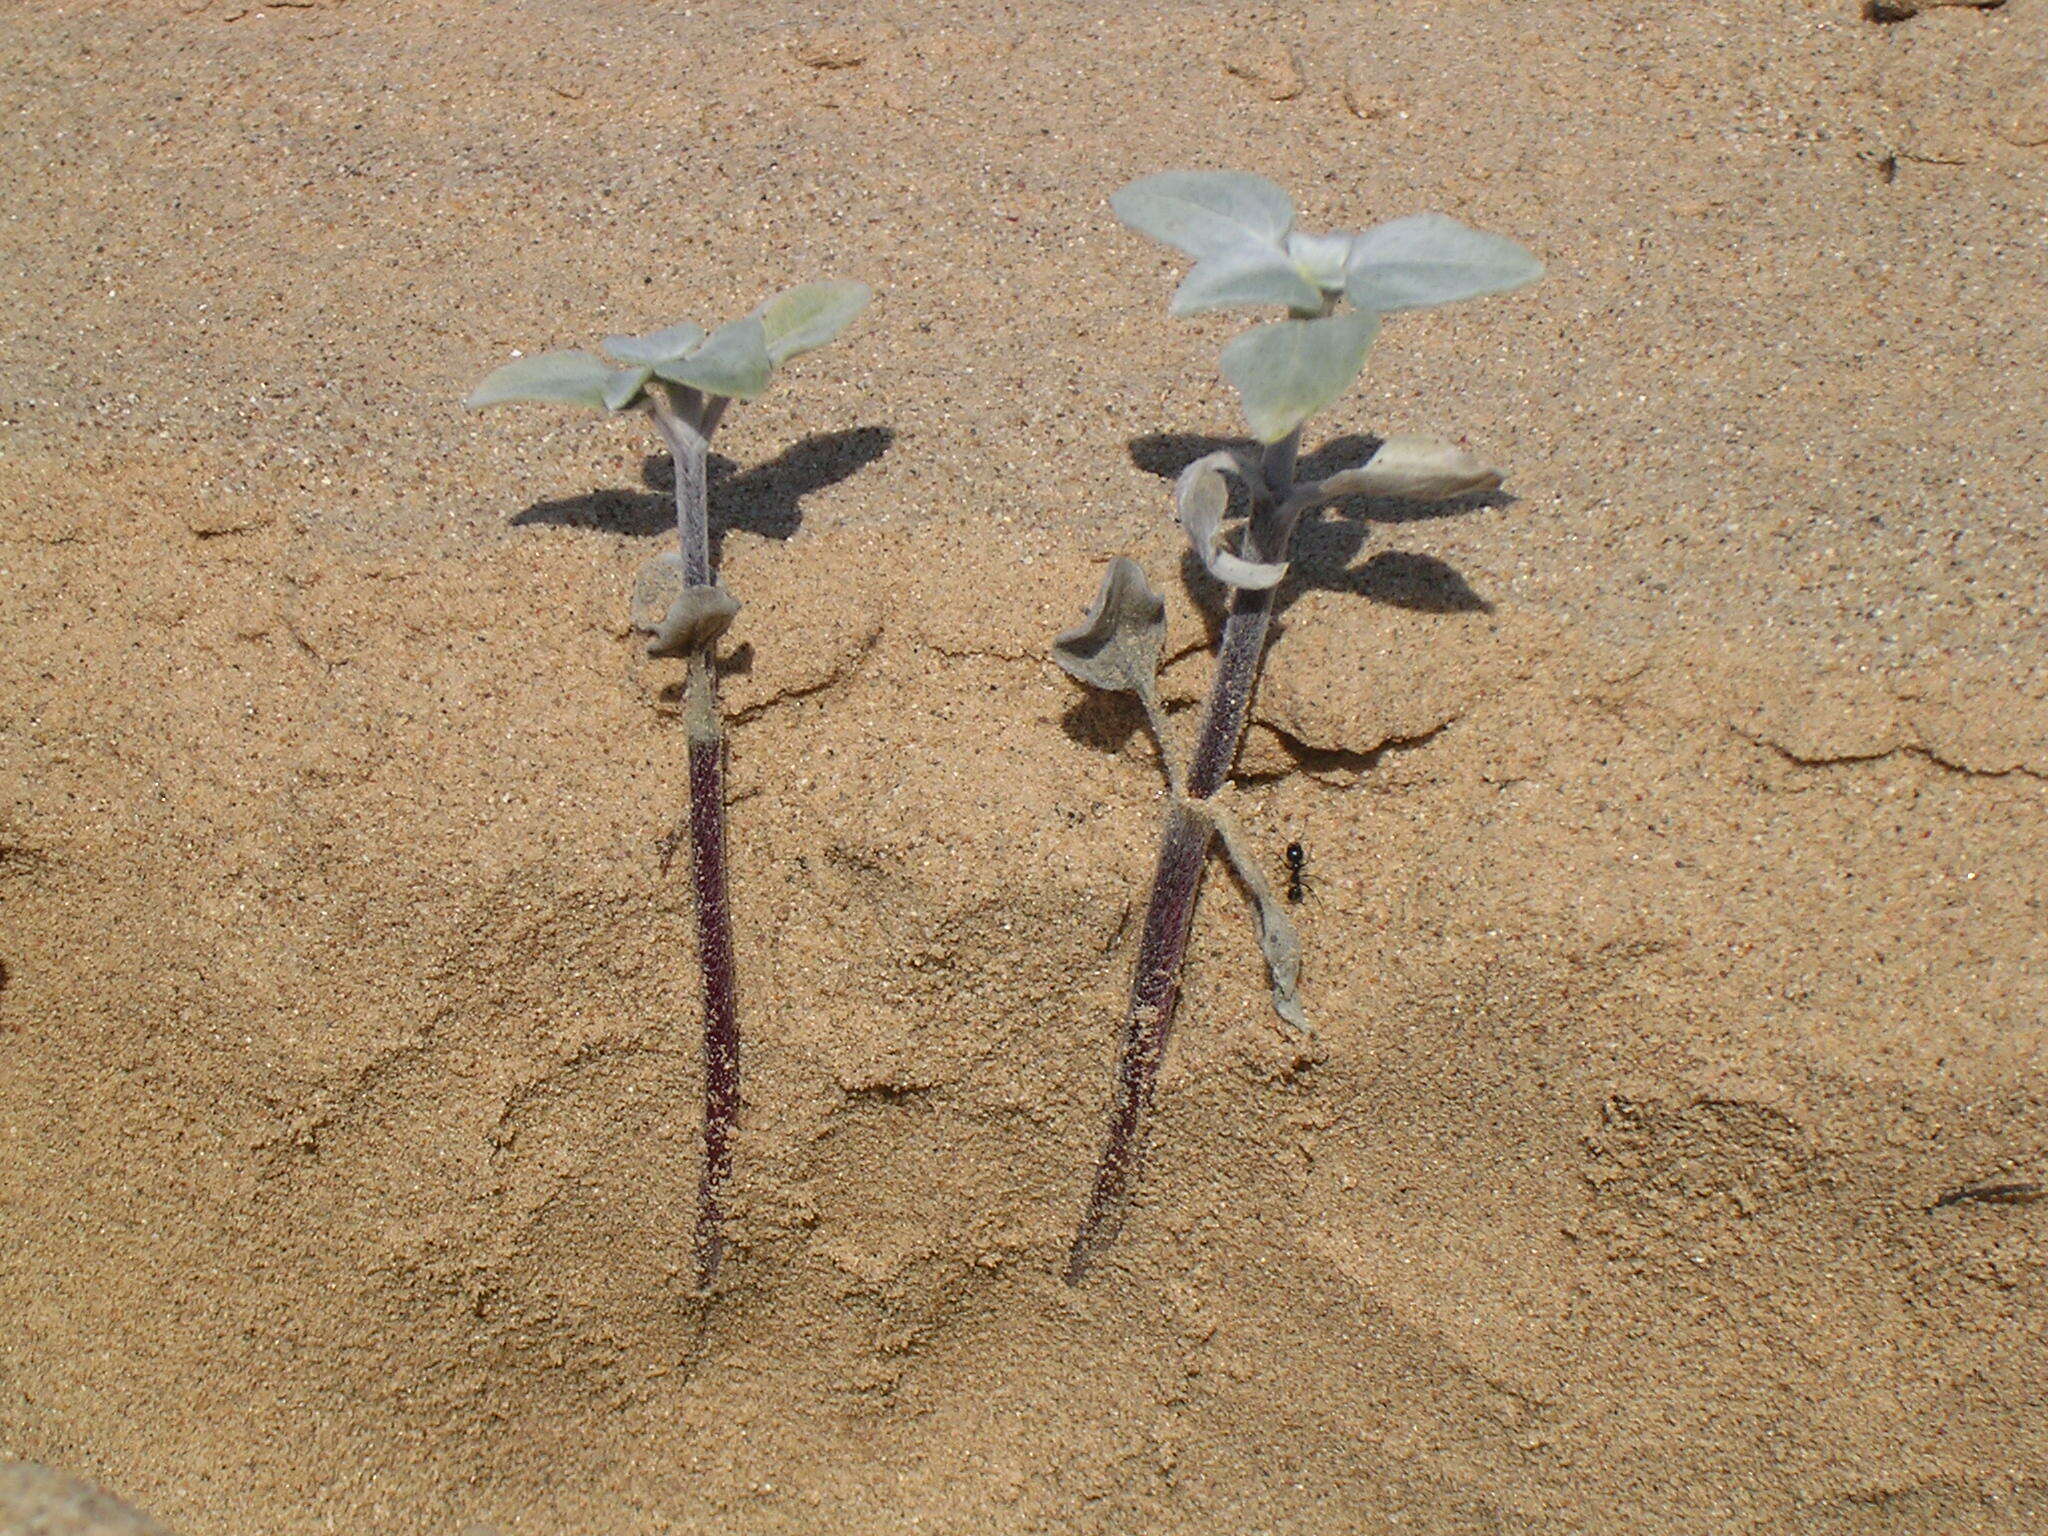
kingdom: Plantae
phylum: Tracheophyta
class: Magnoliopsida
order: Asterales
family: Asteraceae
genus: Helianthus
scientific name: Helianthus niveus
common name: Snowy sunflower
